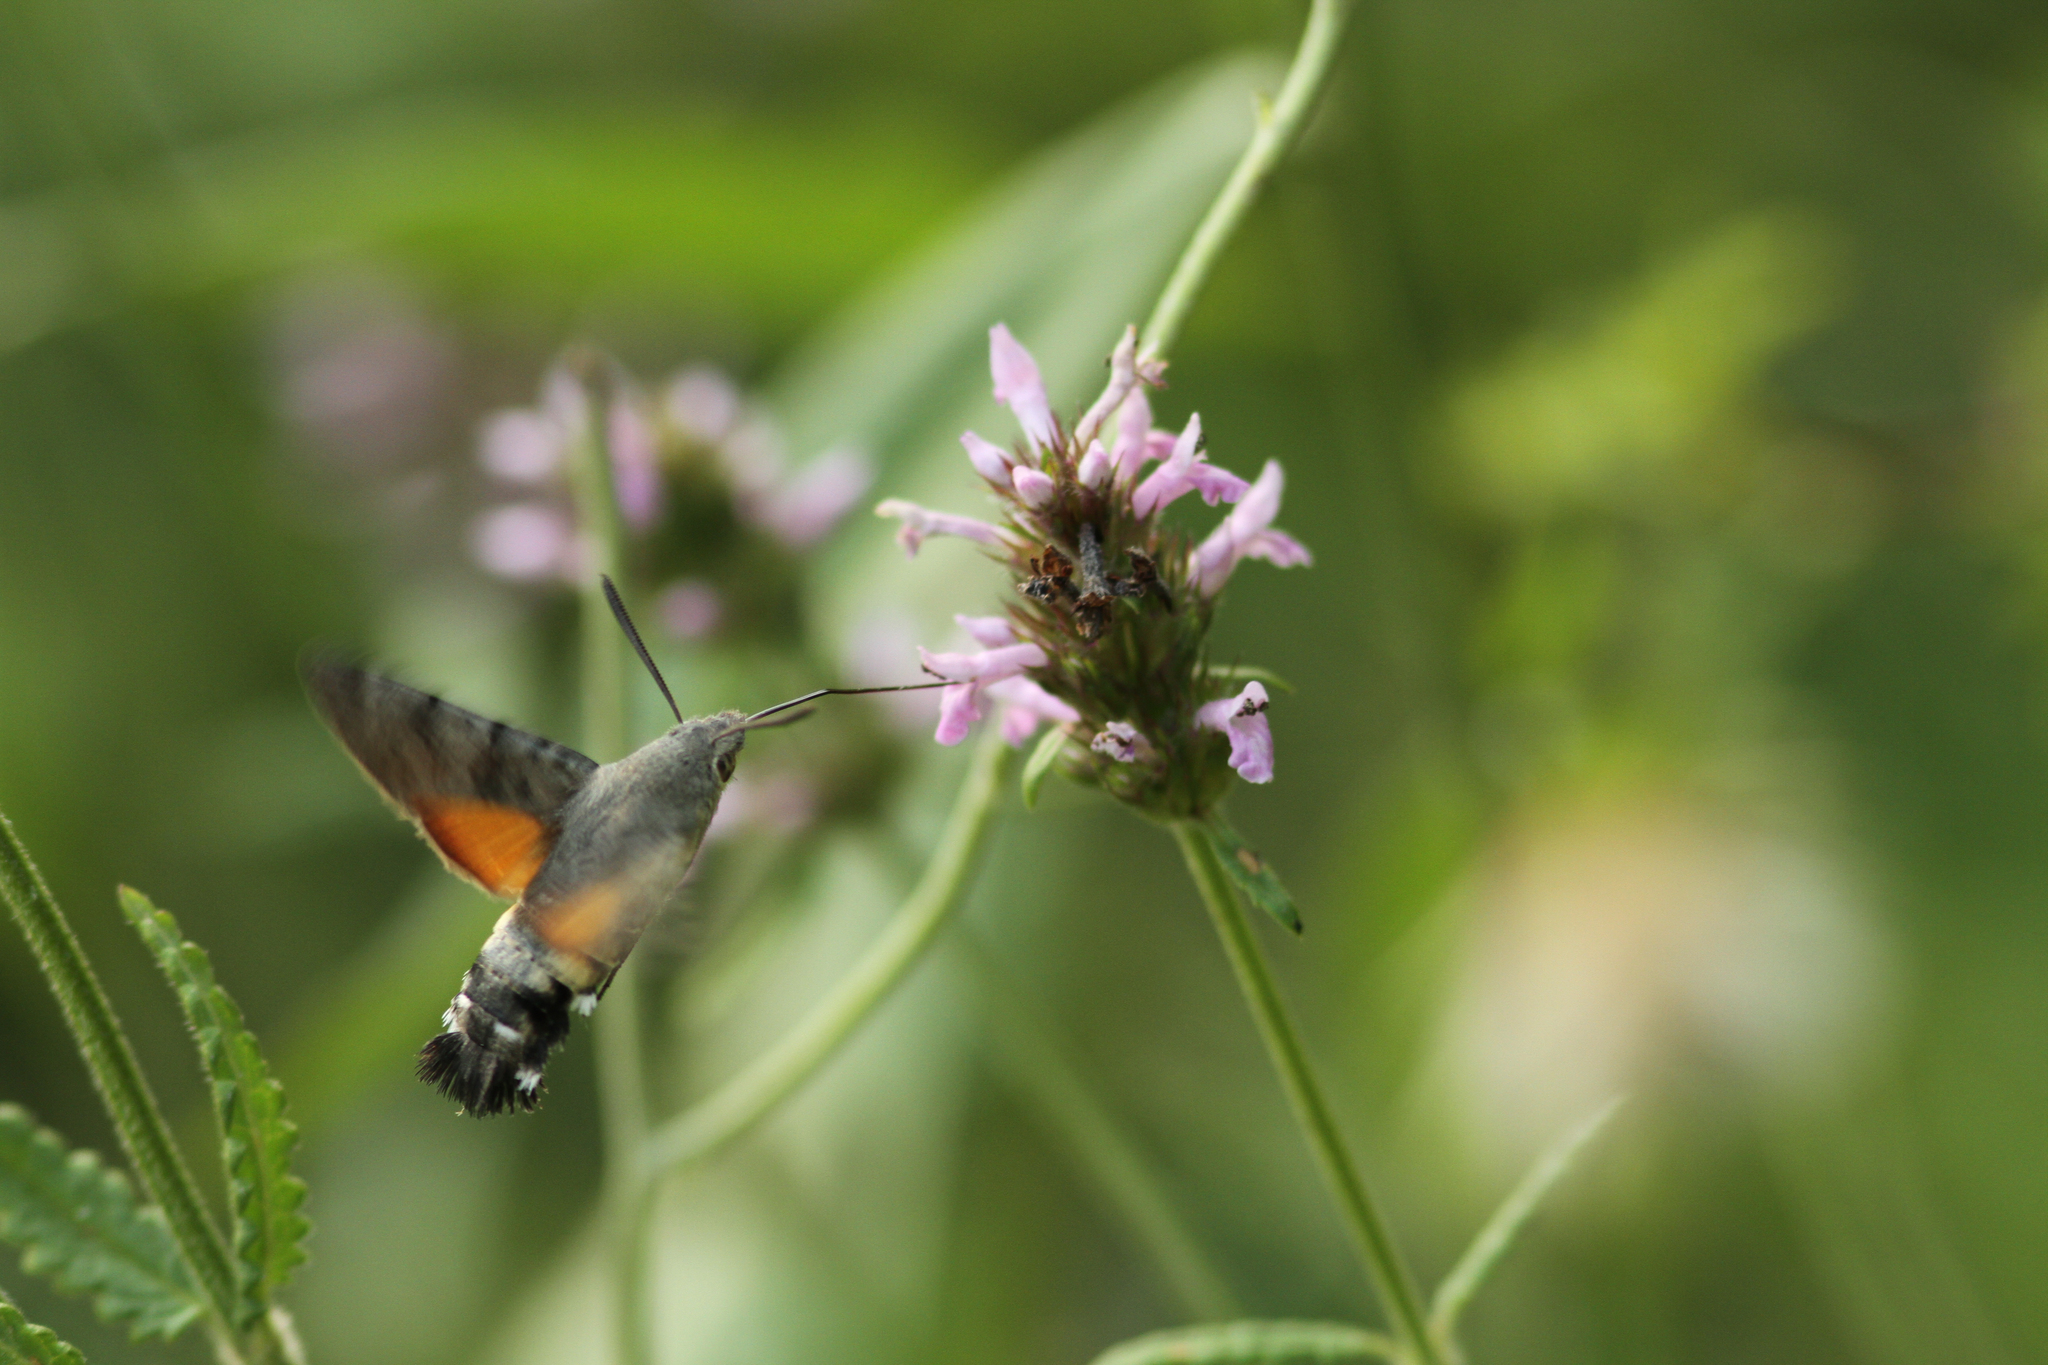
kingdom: Animalia
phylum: Arthropoda
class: Insecta
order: Lepidoptera
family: Sphingidae
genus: Macroglossum
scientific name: Macroglossum stellatarum
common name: Humming-bird hawk-moth
